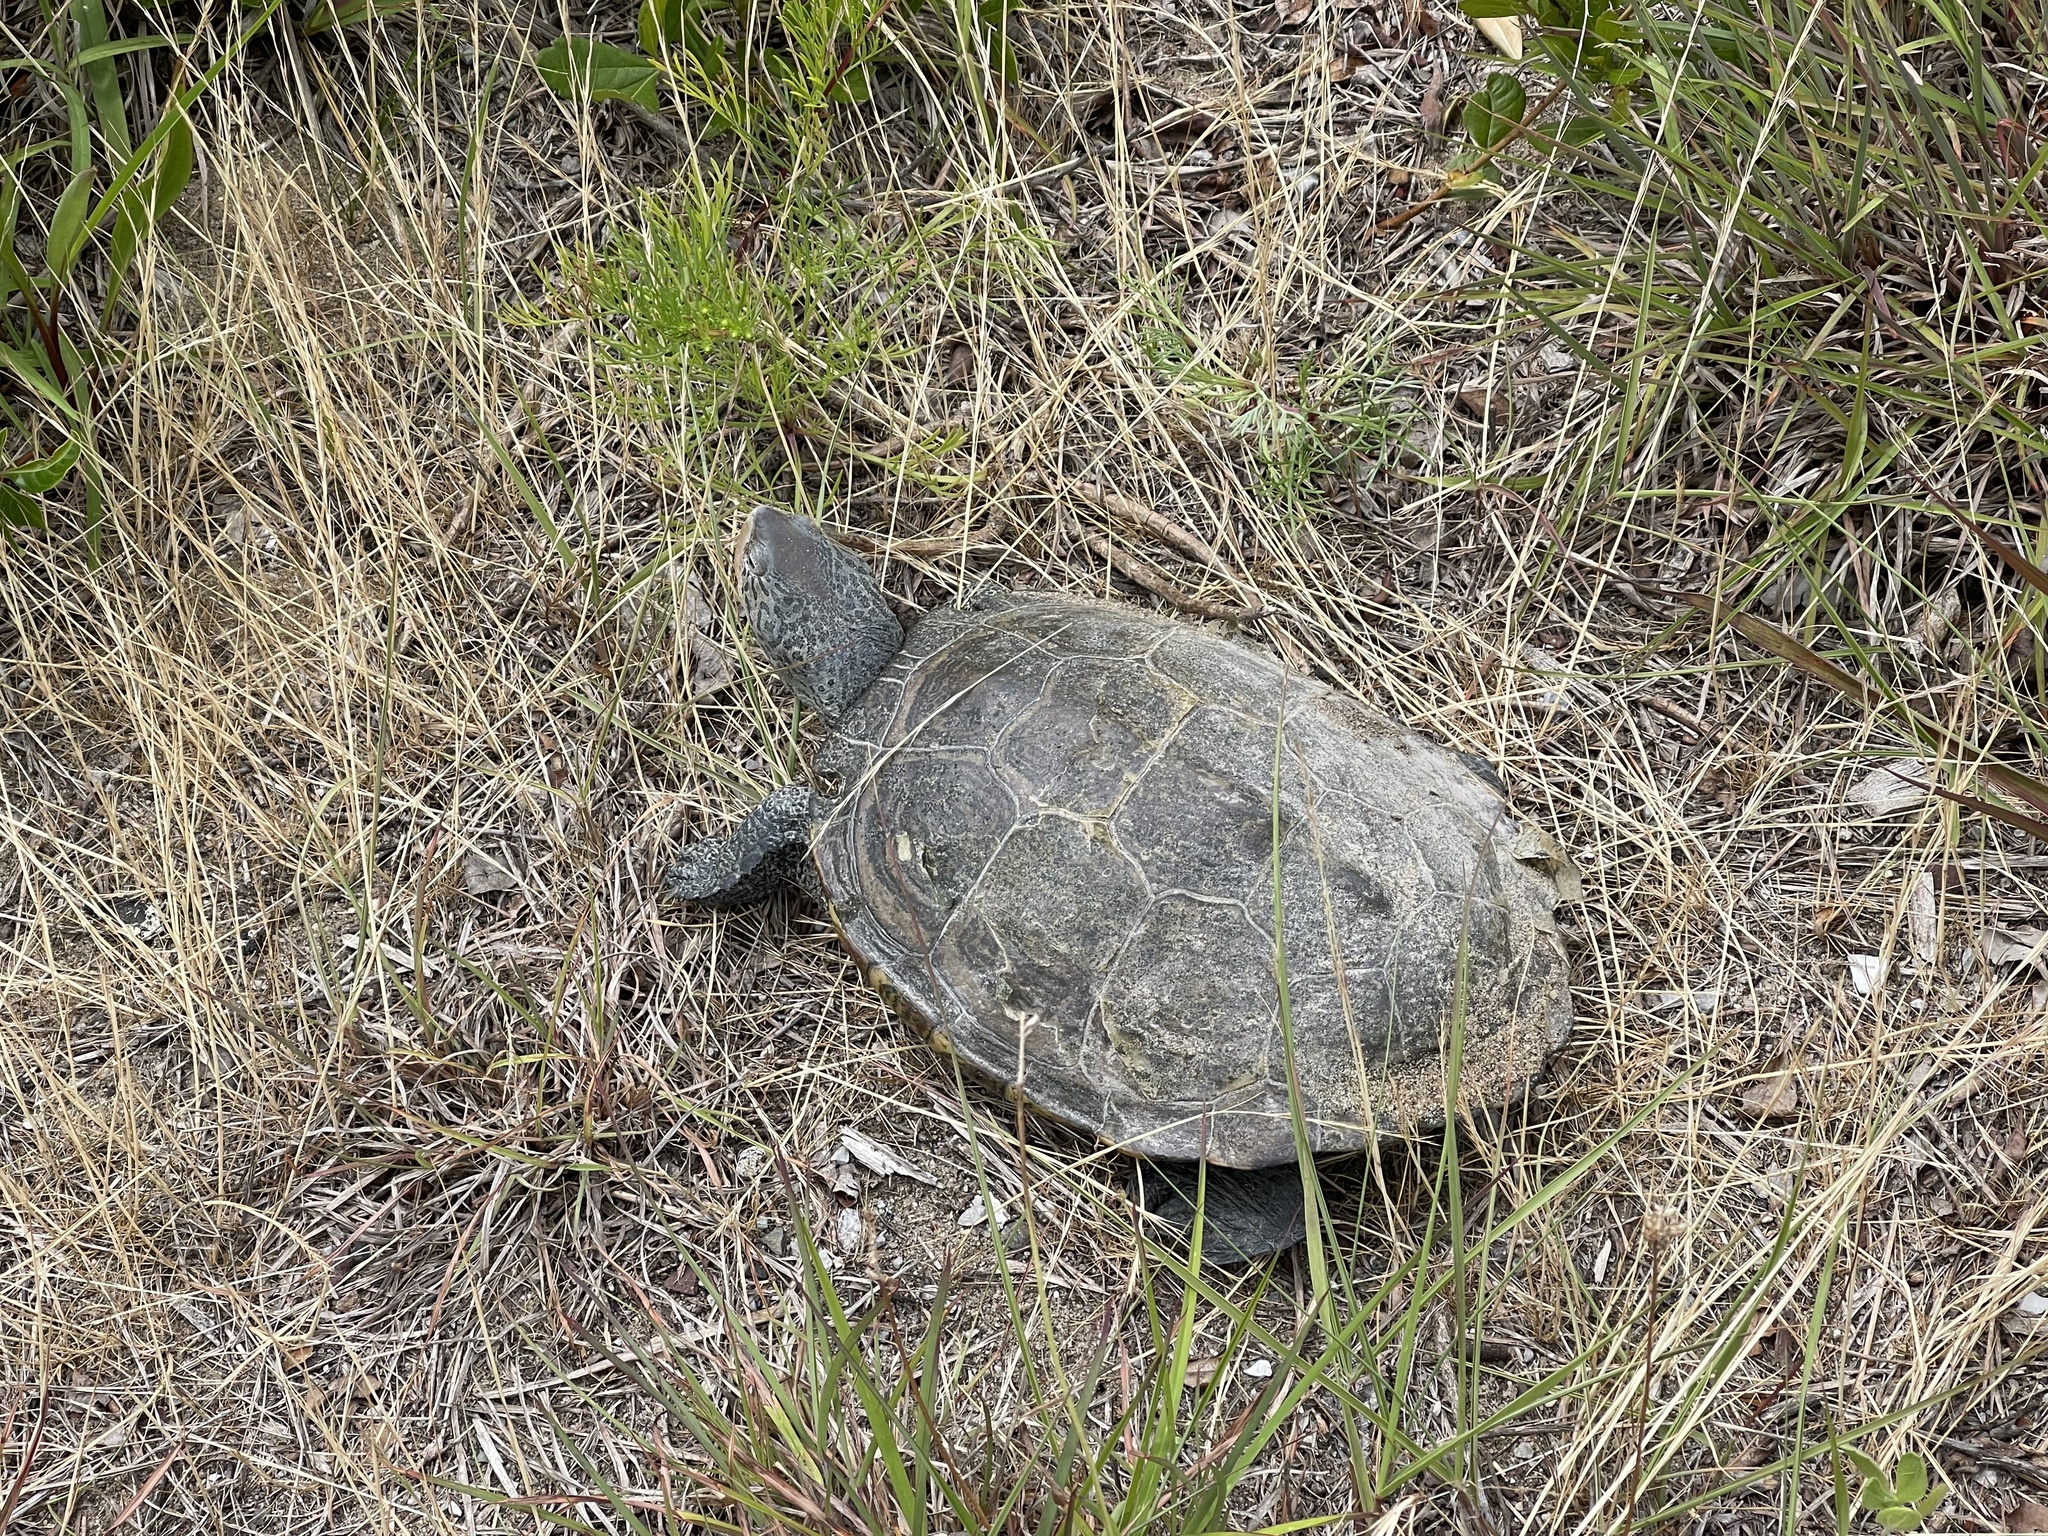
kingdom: Animalia
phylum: Chordata
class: Testudines
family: Emydidae
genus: Malaclemys
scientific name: Malaclemys terrapin
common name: Diamondback terrapin
